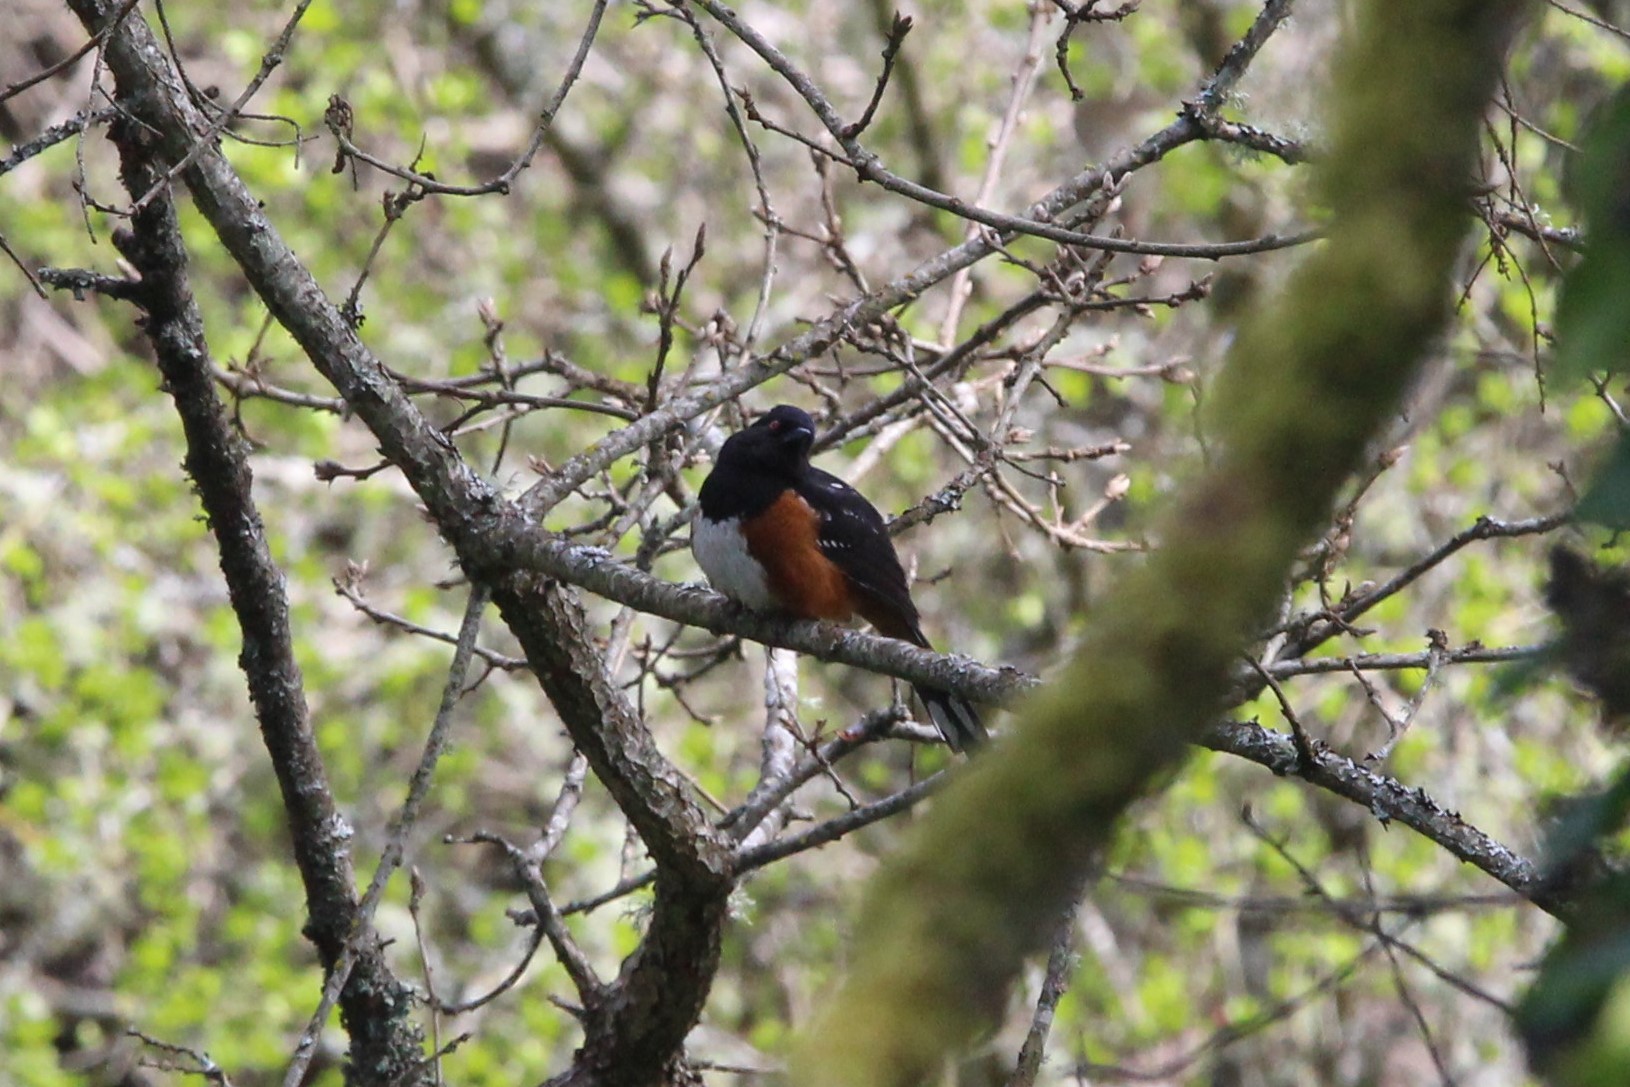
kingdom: Animalia
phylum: Chordata
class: Aves
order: Passeriformes
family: Passerellidae
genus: Pipilo
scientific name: Pipilo maculatus
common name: Spotted towhee
